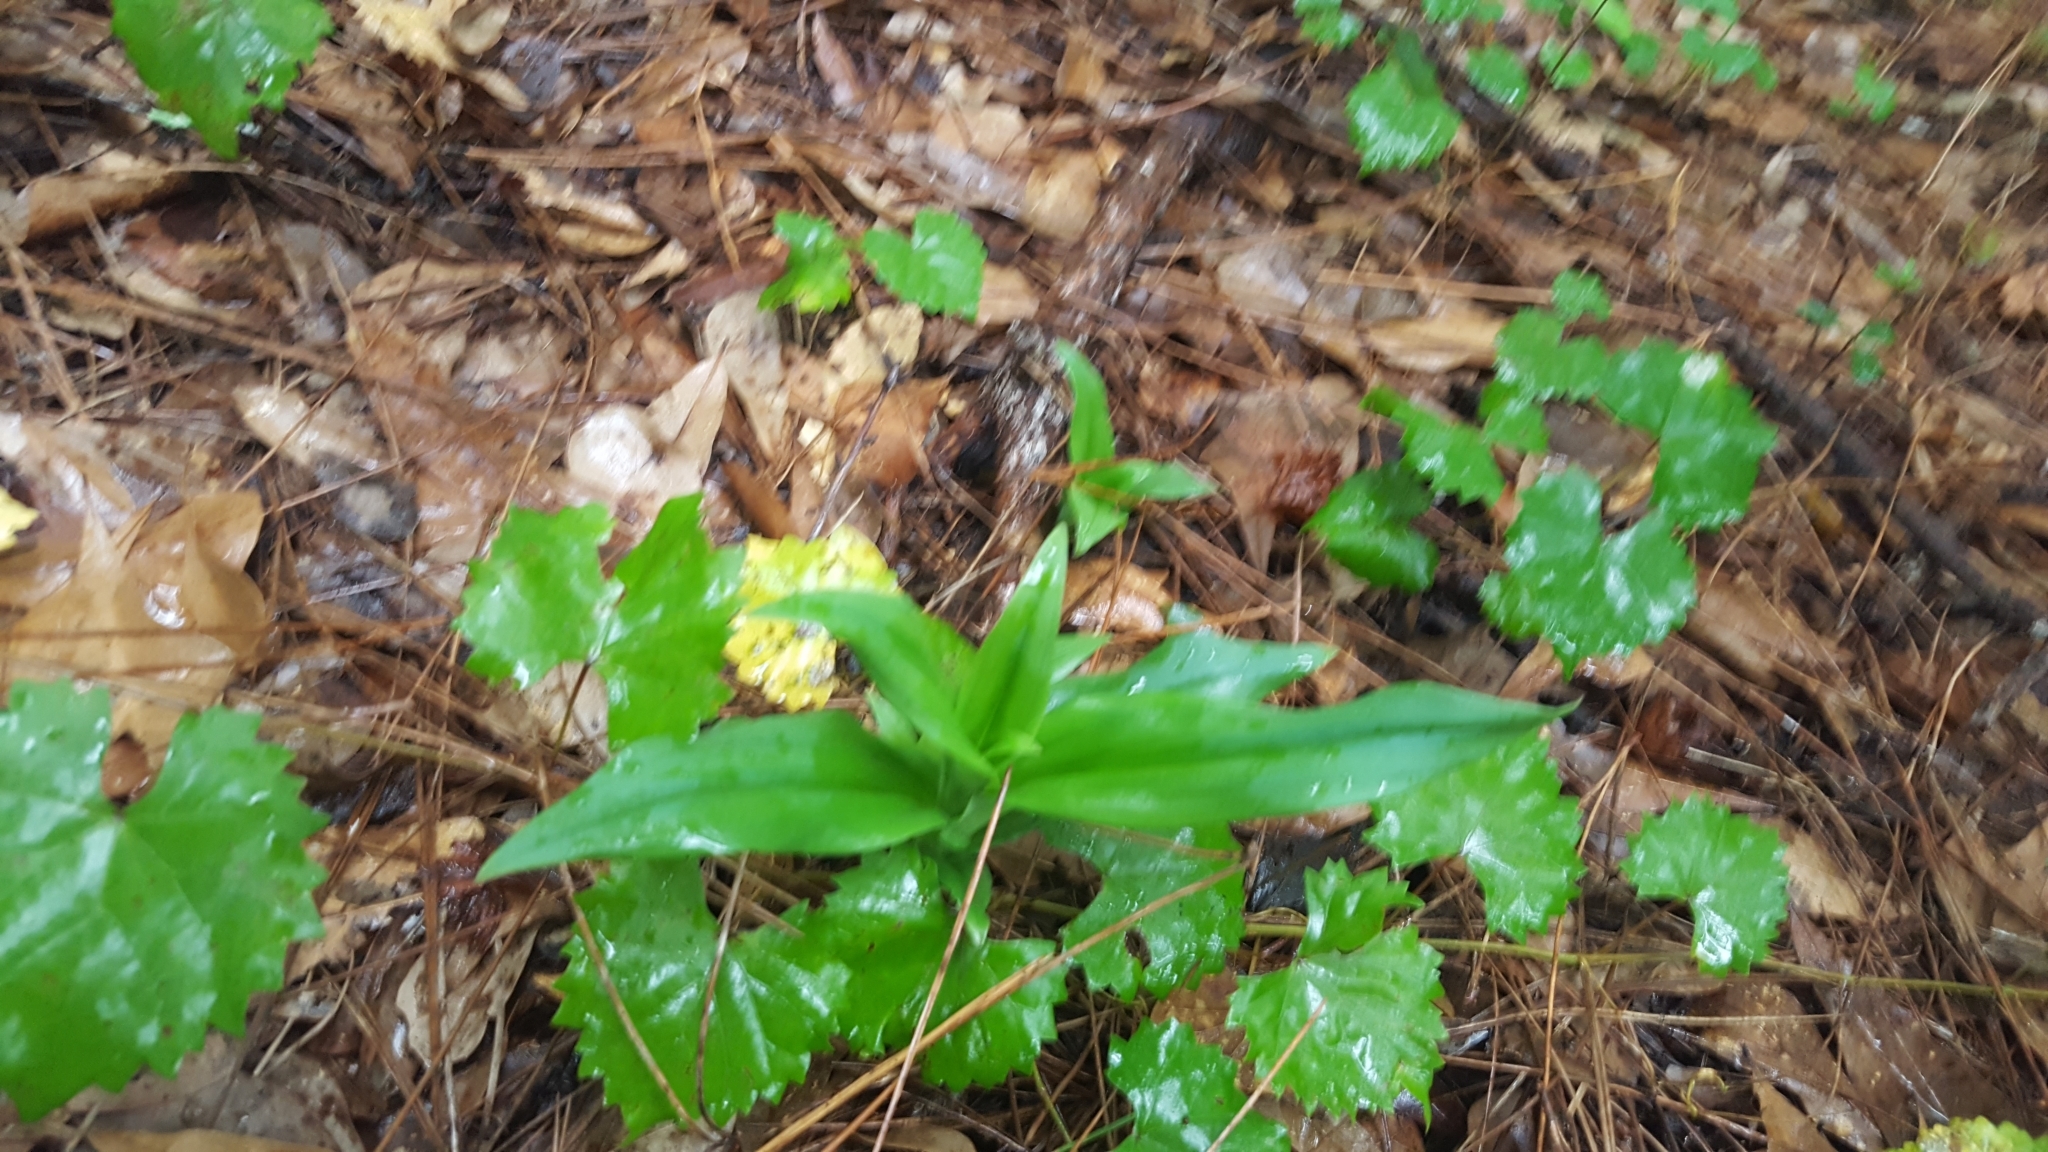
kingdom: Plantae
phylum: Tracheophyta
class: Liliopsida
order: Asparagales
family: Orchidaceae
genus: Habenaria
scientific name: Habenaria floribunda
